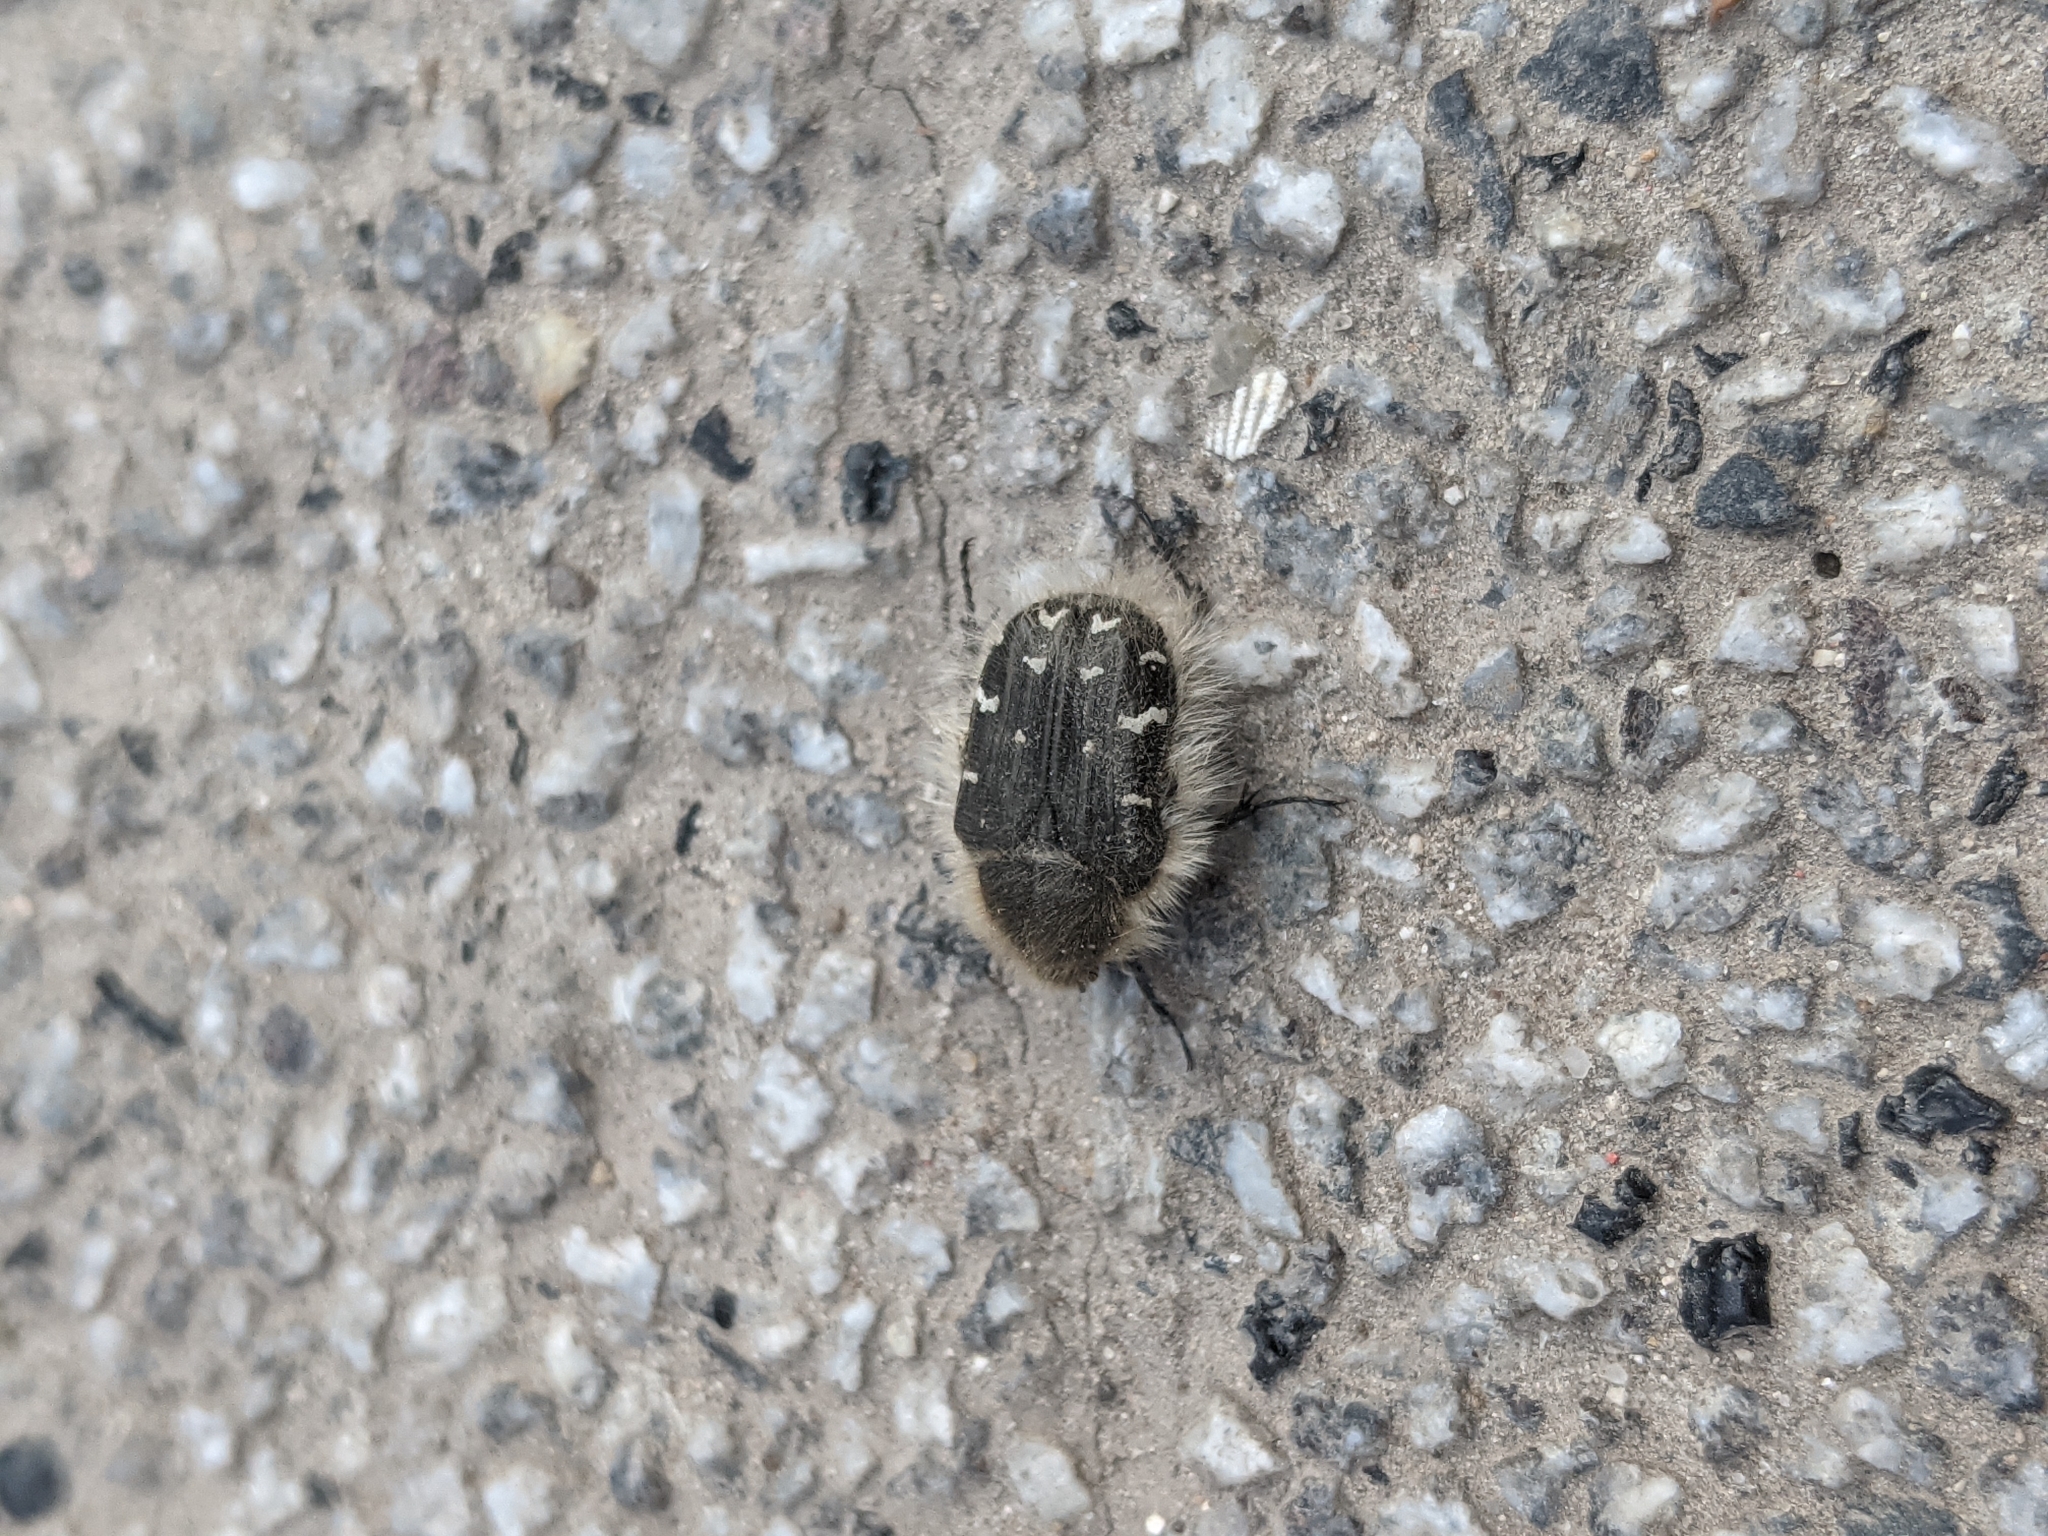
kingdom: Animalia
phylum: Arthropoda
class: Insecta
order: Coleoptera
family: Scarabaeidae
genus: Tropinota
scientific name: Tropinota hirta
